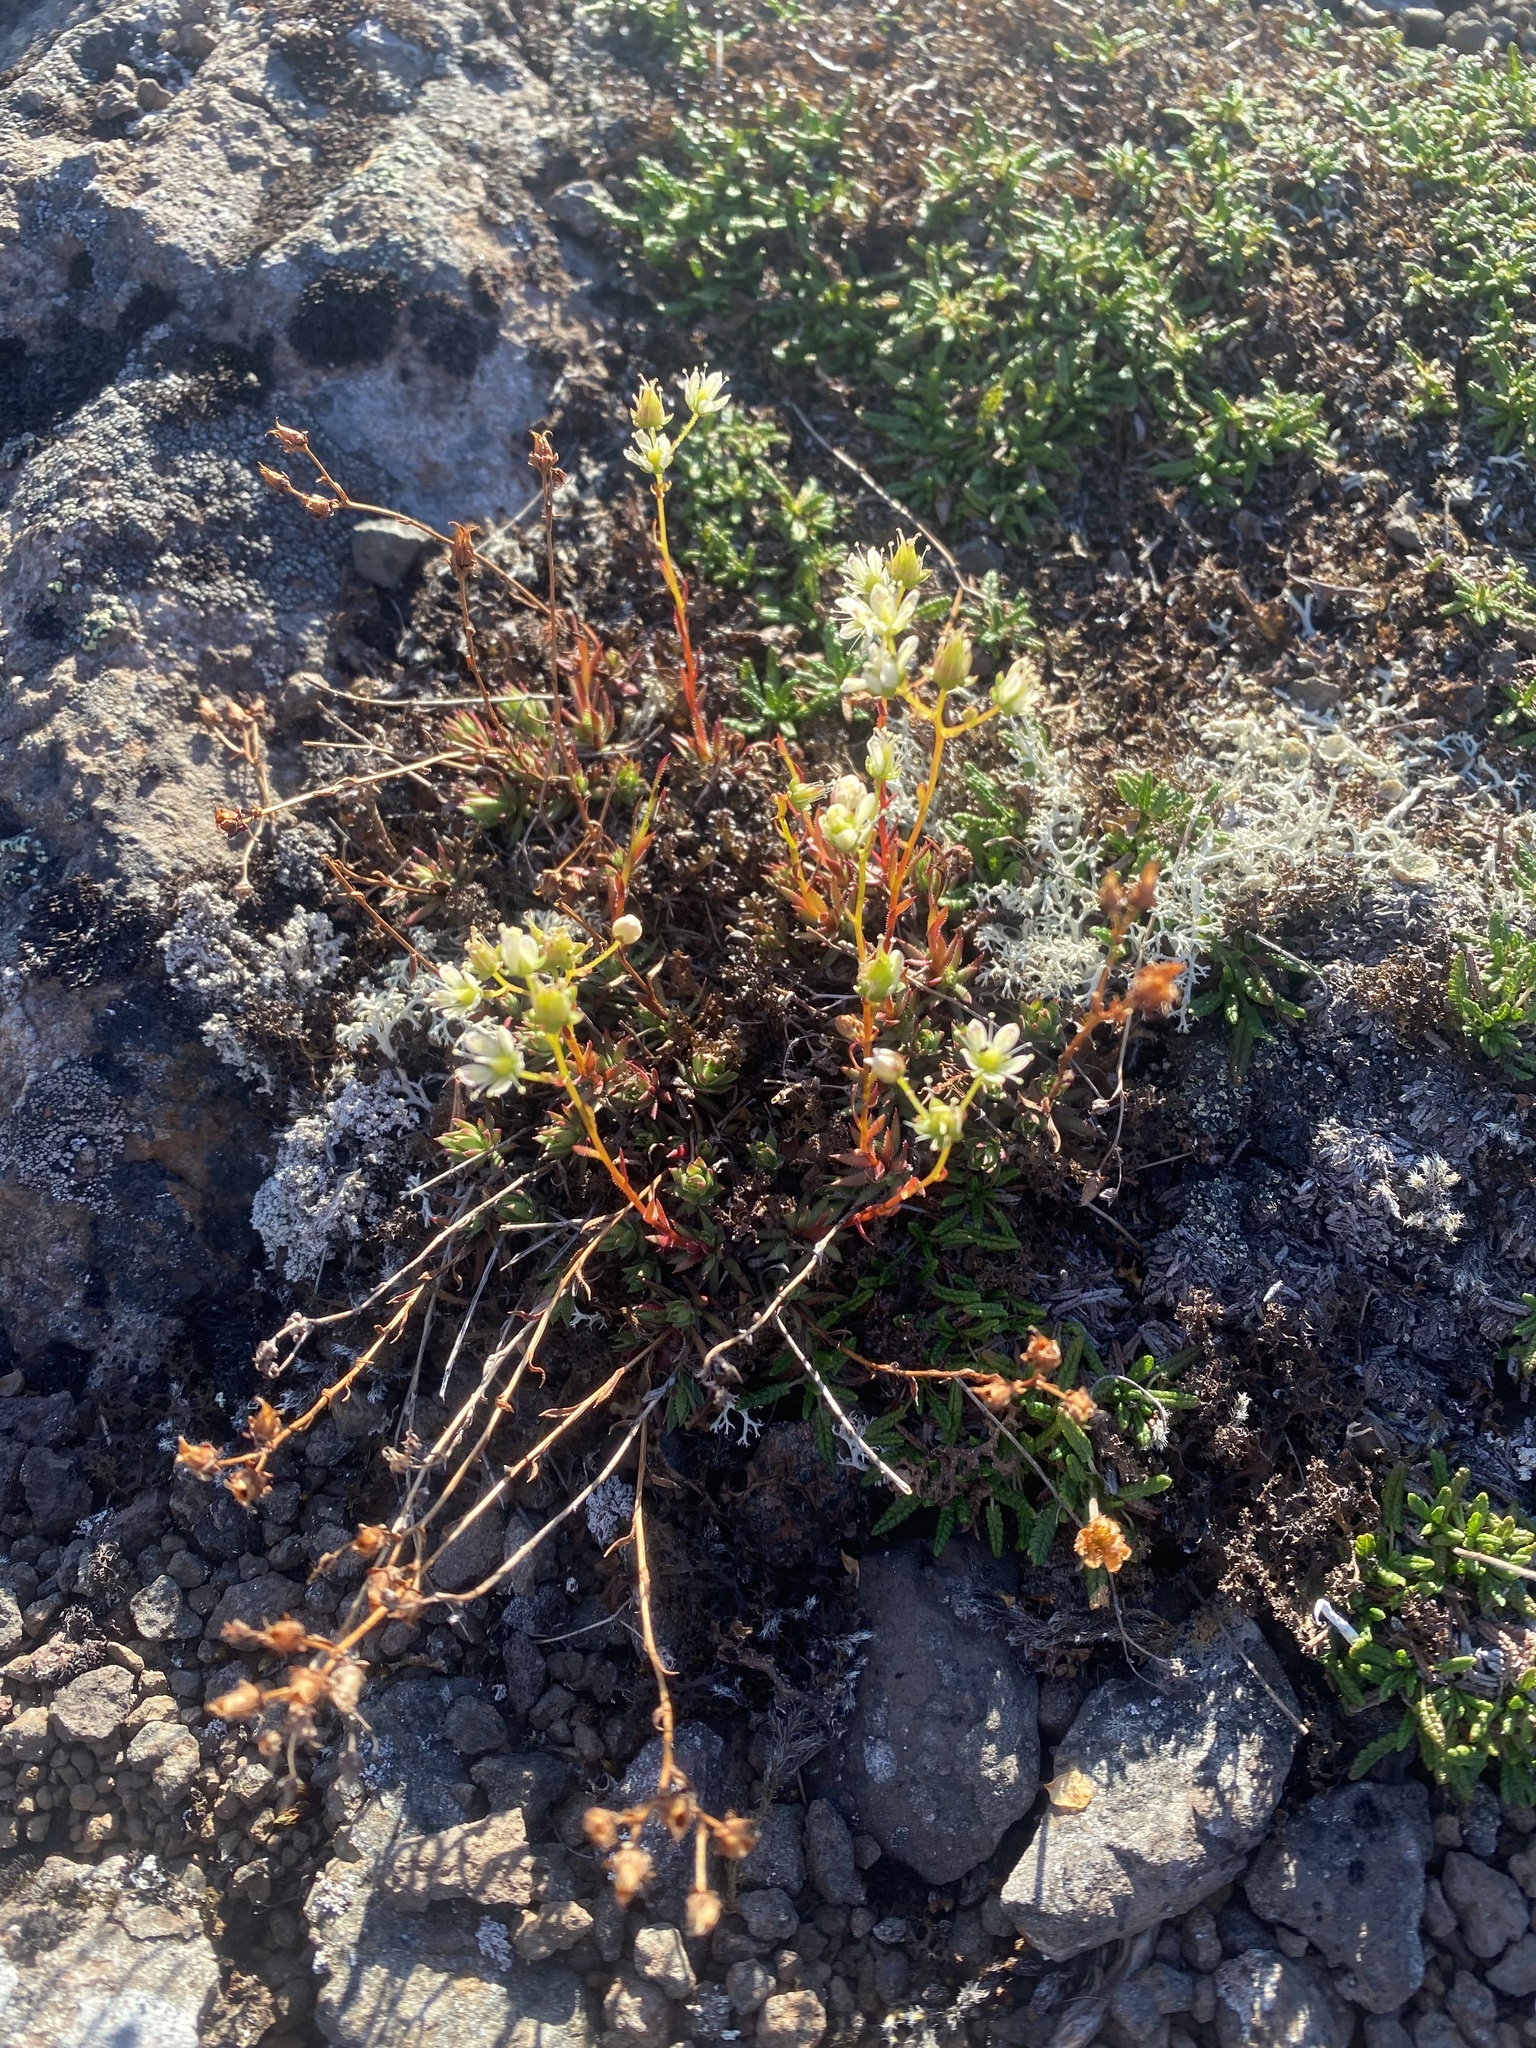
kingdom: Plantae
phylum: Tracheophyta
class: Magnoliopsida
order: Saxifragales
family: Saxifragaceae
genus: Saxifraga
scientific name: Saxifraga
